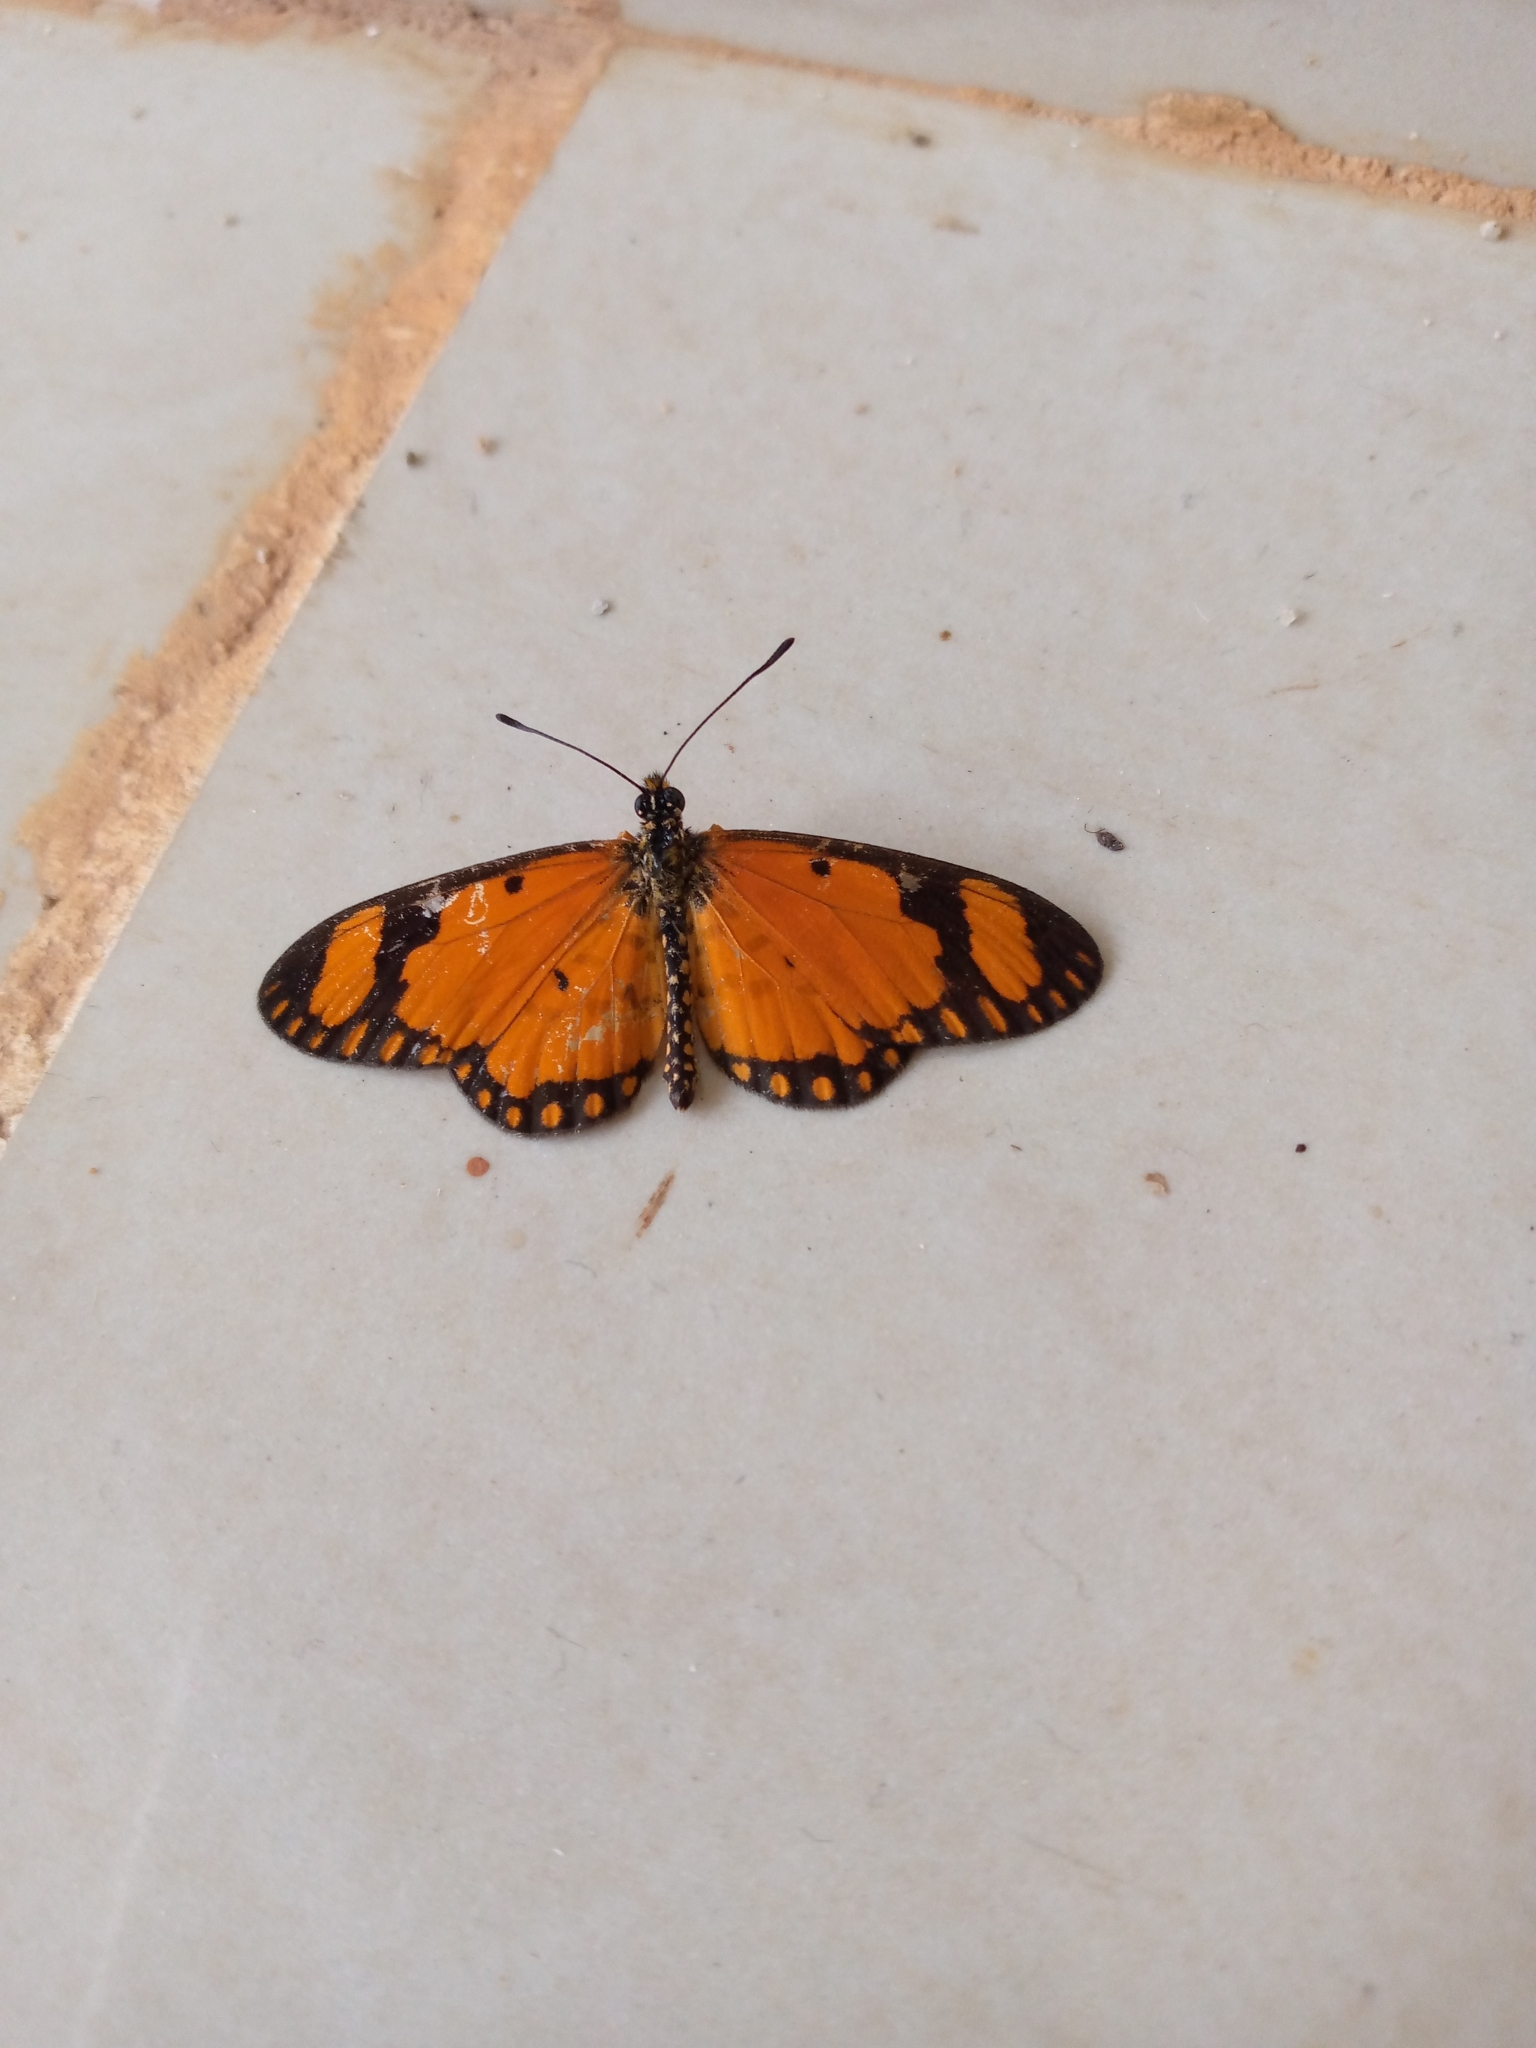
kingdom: Animalia
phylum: Arthropoda
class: Insecta
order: Lepidoptera
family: Nymphalidae
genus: Acraea
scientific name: Acraea Telchinia serena
